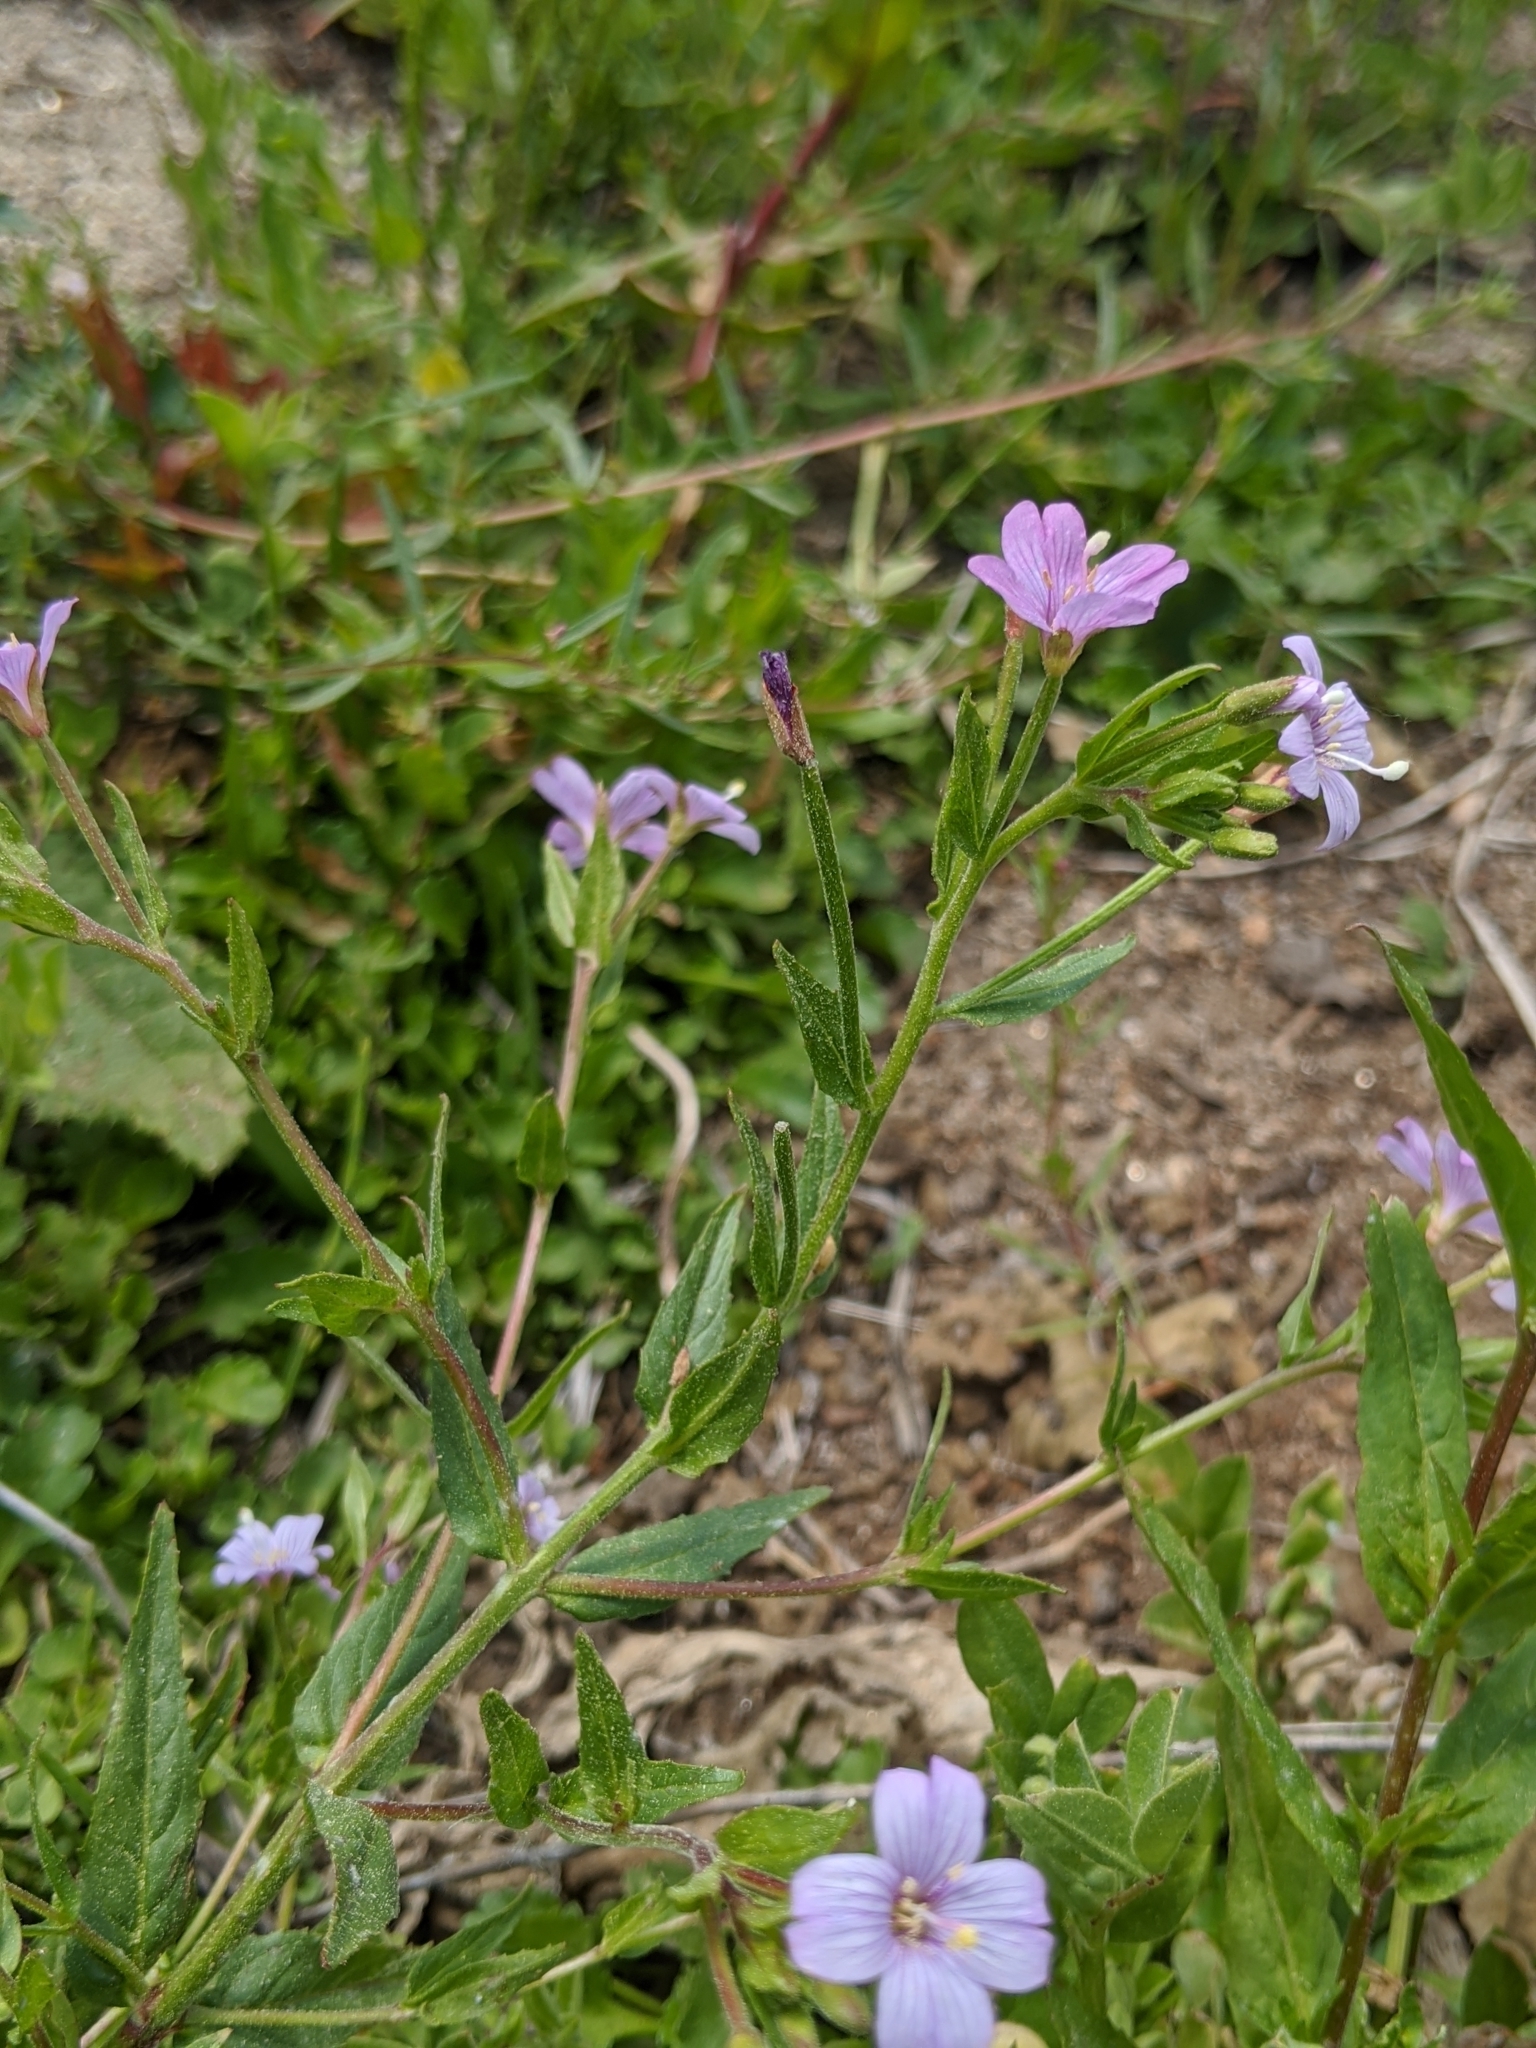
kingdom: Plantae
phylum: Tracheophyta
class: Magnoliopsida
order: Myrtales
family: Onagraceae
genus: Epilobium
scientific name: Epilobium ciliatum
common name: American willowherb
